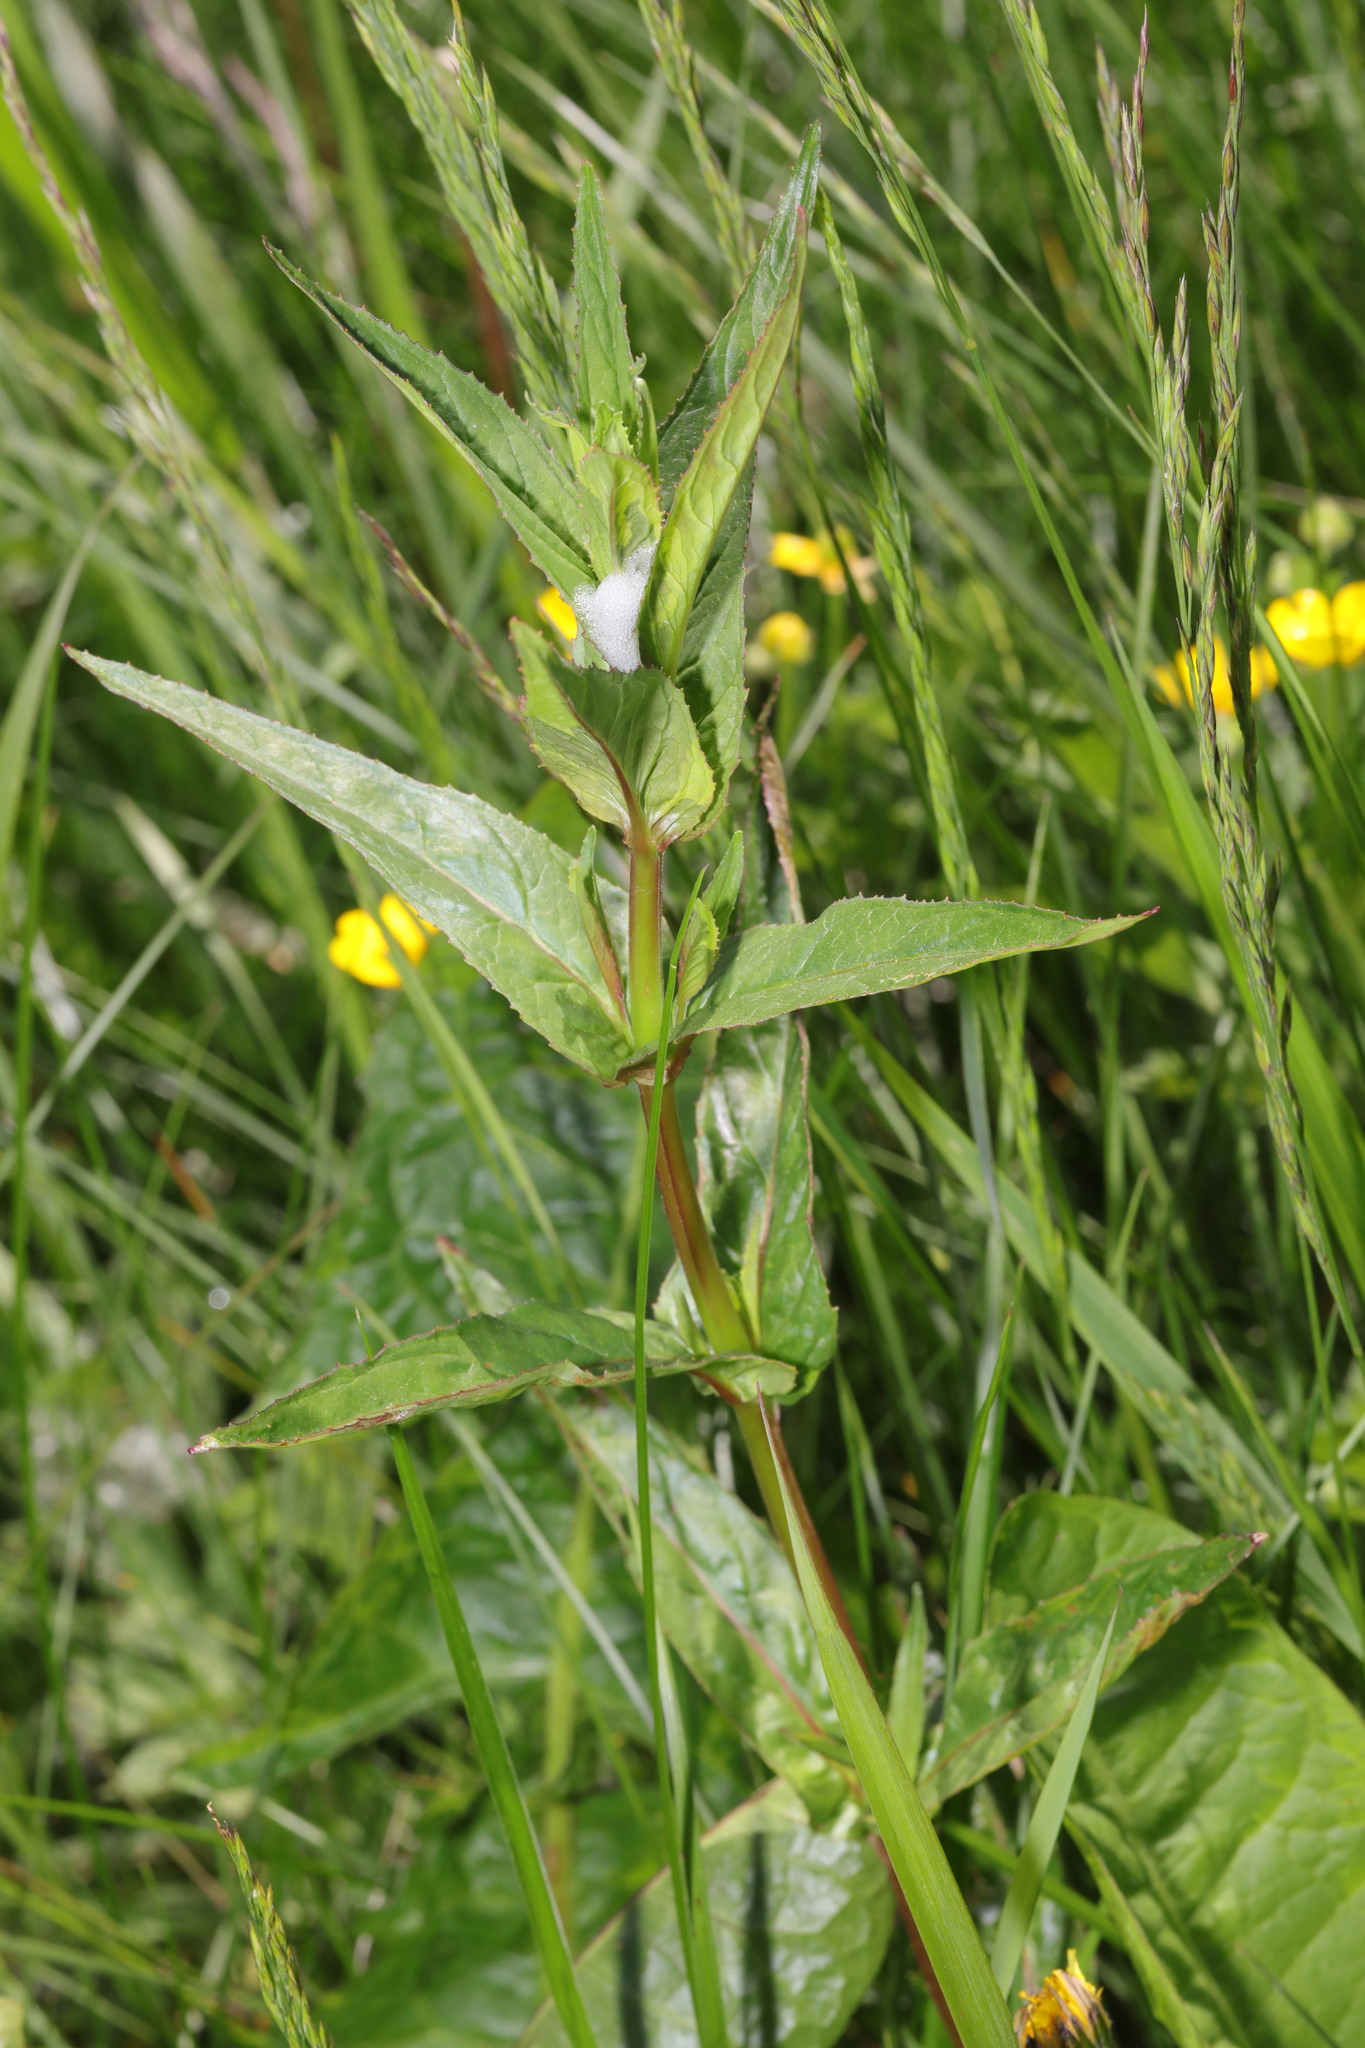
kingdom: Plantae
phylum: Tracheophyta
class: Magnoliopsida
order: Myrtales
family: Onagraceae
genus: Epilobium
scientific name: Epilobium montanum
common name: Broad-leaved willowherb
